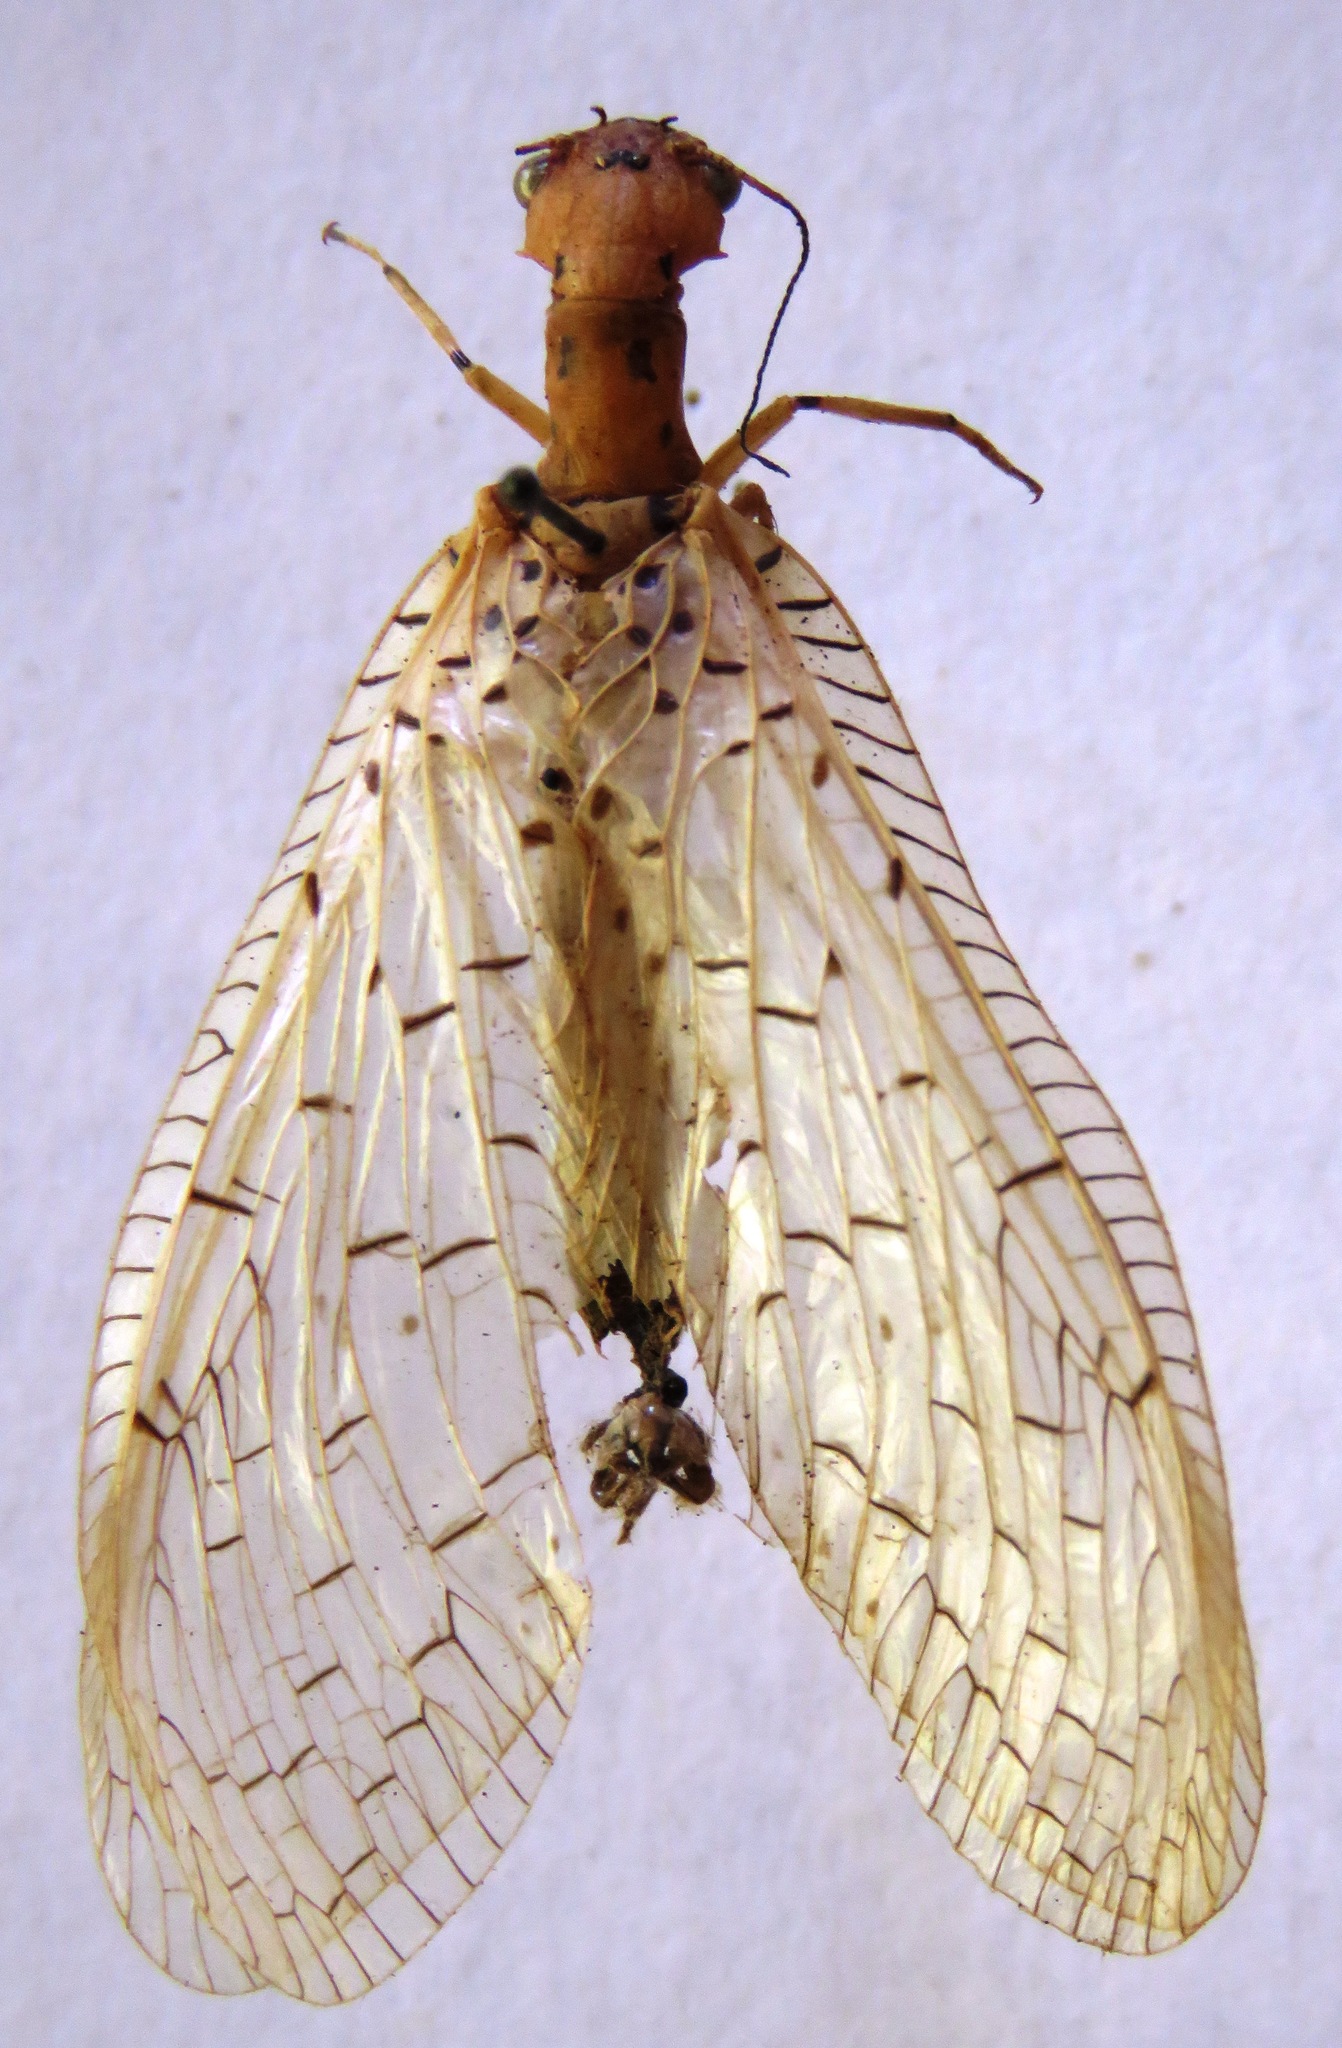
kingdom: Animalia
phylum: Arthropoda
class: Insecta
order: Megaloptera
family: Corydalidae
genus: Chloronia
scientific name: Chloronia mexicana
